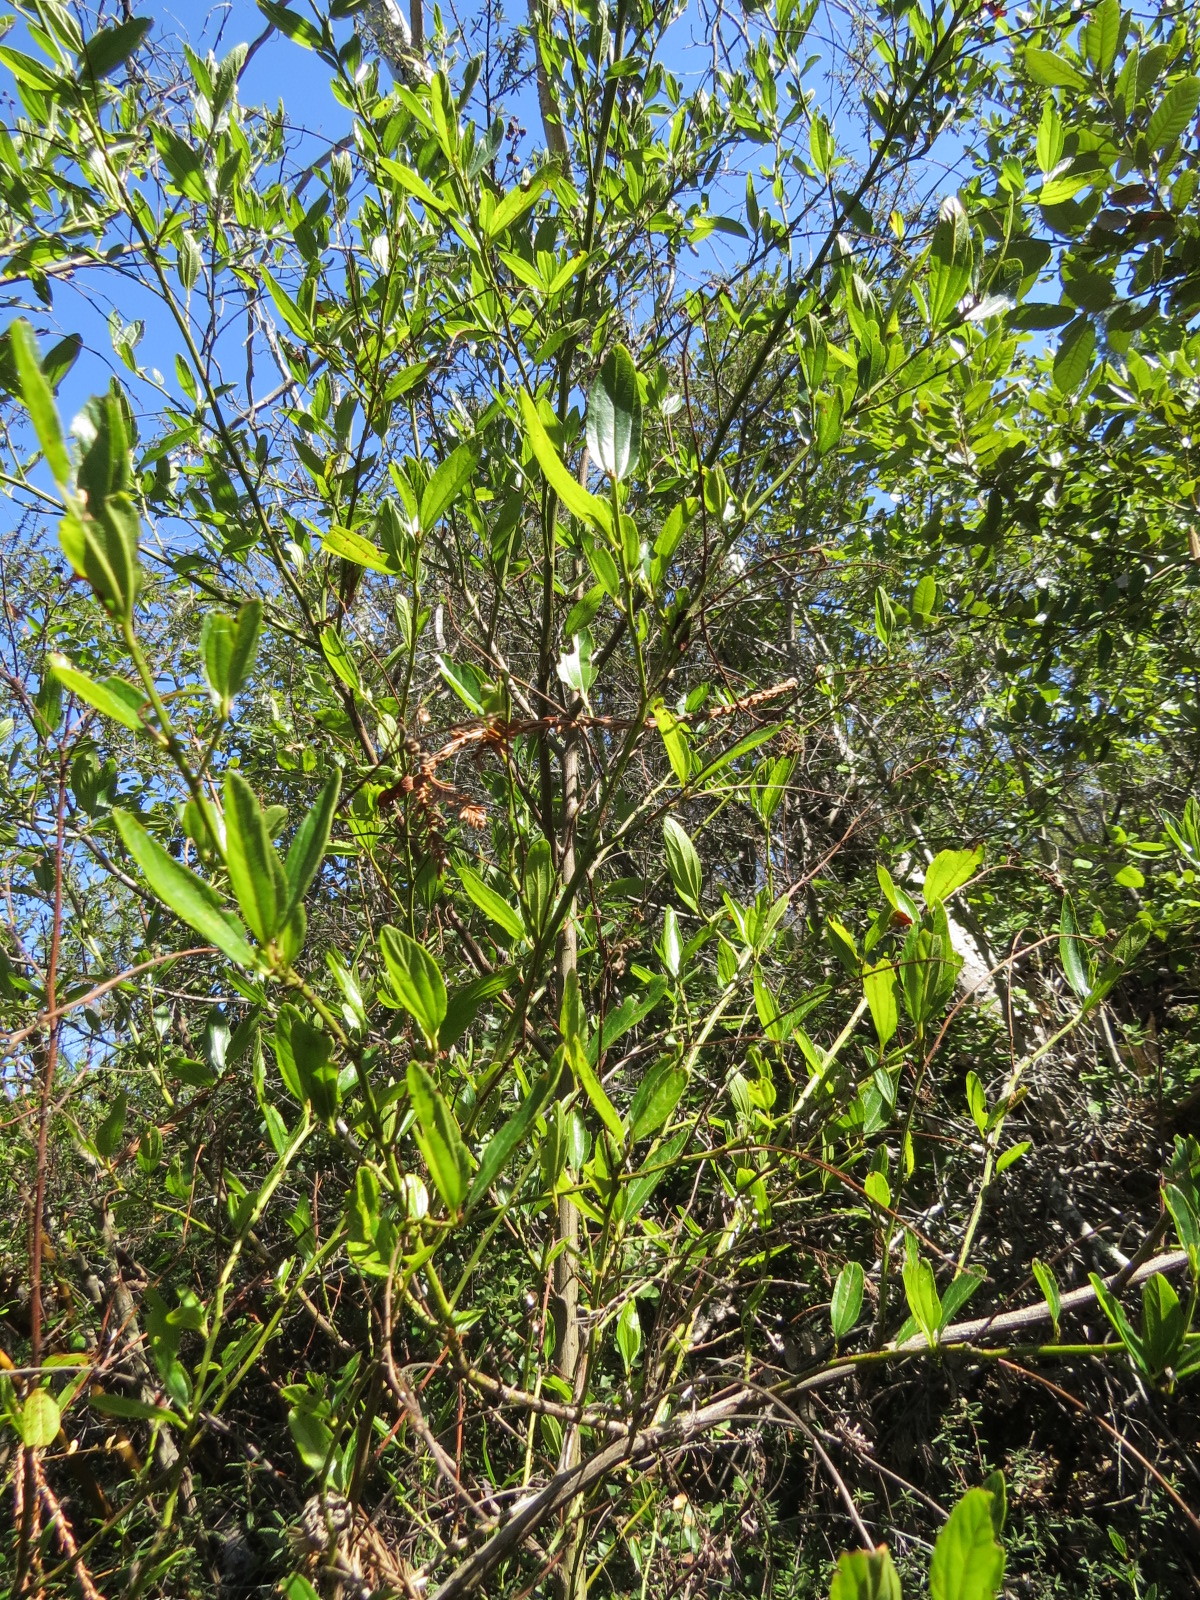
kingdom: Plantae
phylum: Tracheophyta
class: Magnoliopsida
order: Rosales
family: Rhamnaceae
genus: Ceanothus
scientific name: Ceanothus thyrsiflorus
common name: California-lilac
